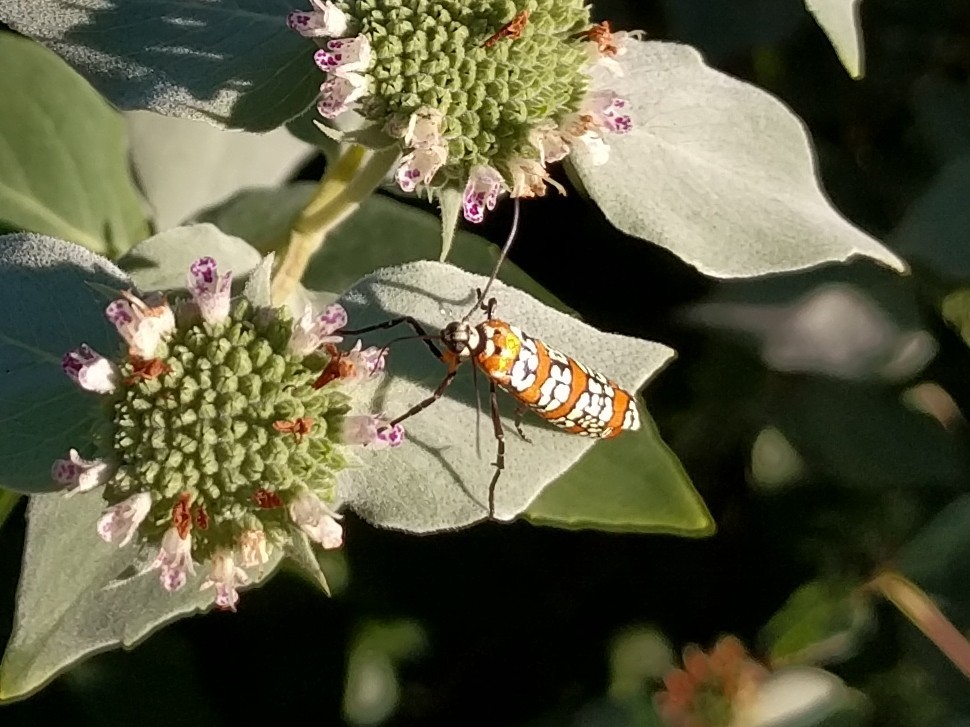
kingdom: Animalia
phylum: Arthropoda
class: Insecta
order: Lepidoptera
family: Attevidae
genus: Atteva
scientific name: Atteva punctella
